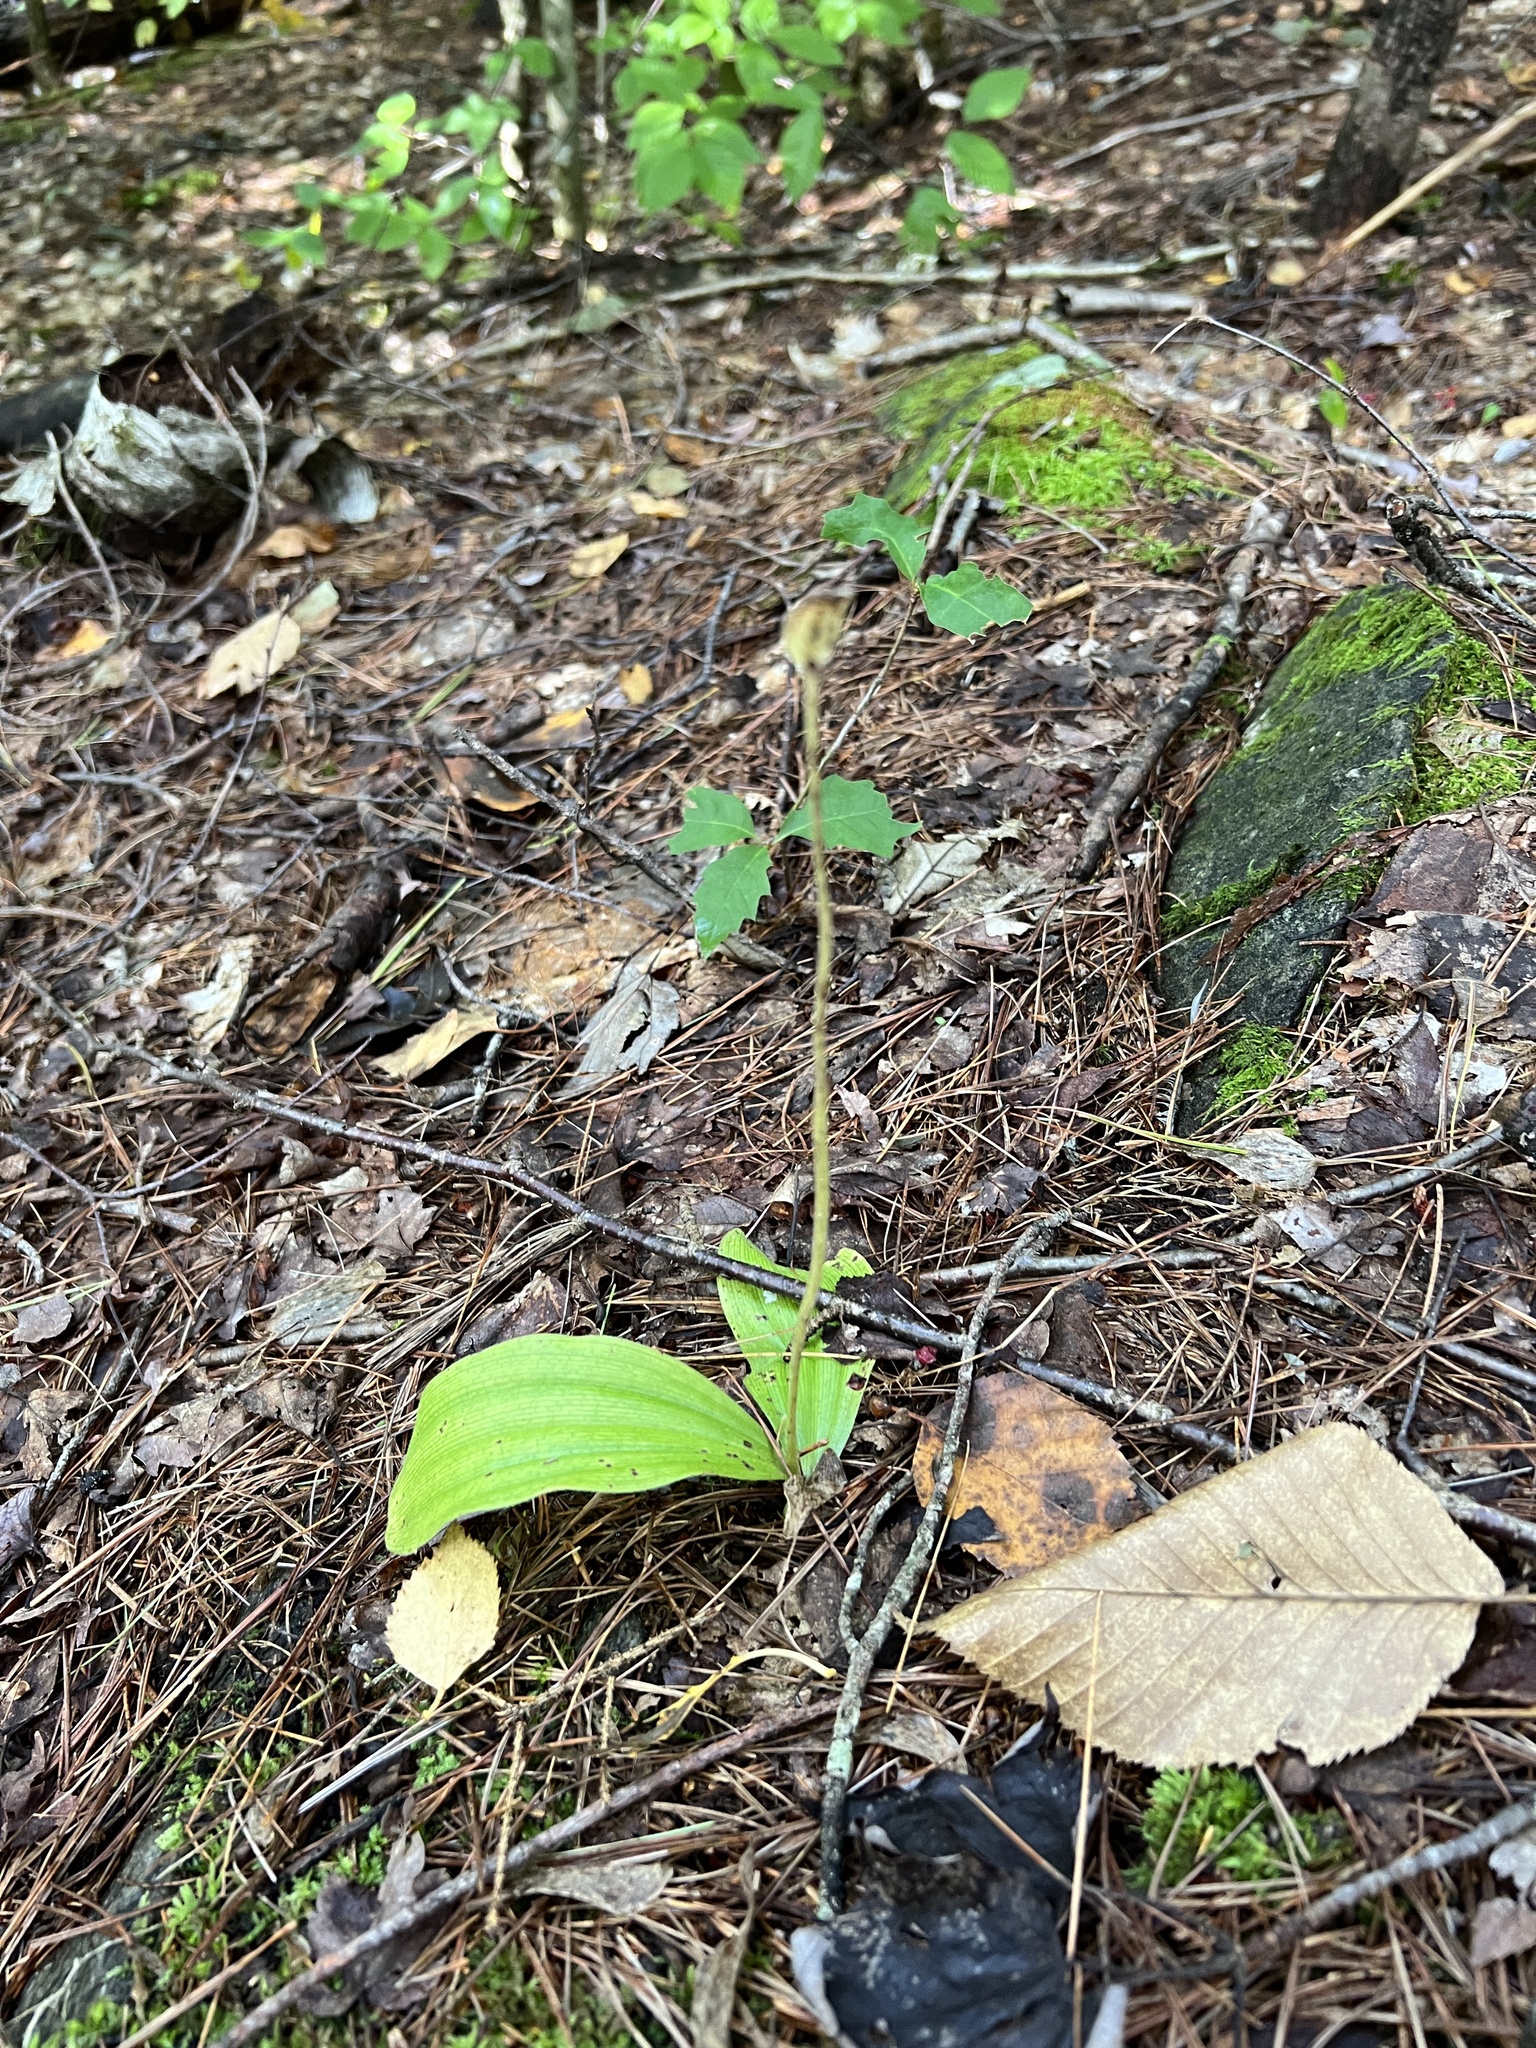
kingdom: Plantae
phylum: Tracheophyta
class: Liliopsida
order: Asparagales
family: Orchidaceae
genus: Cypripedium
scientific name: Cypripedium acaule
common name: Pink lady's-slipper
